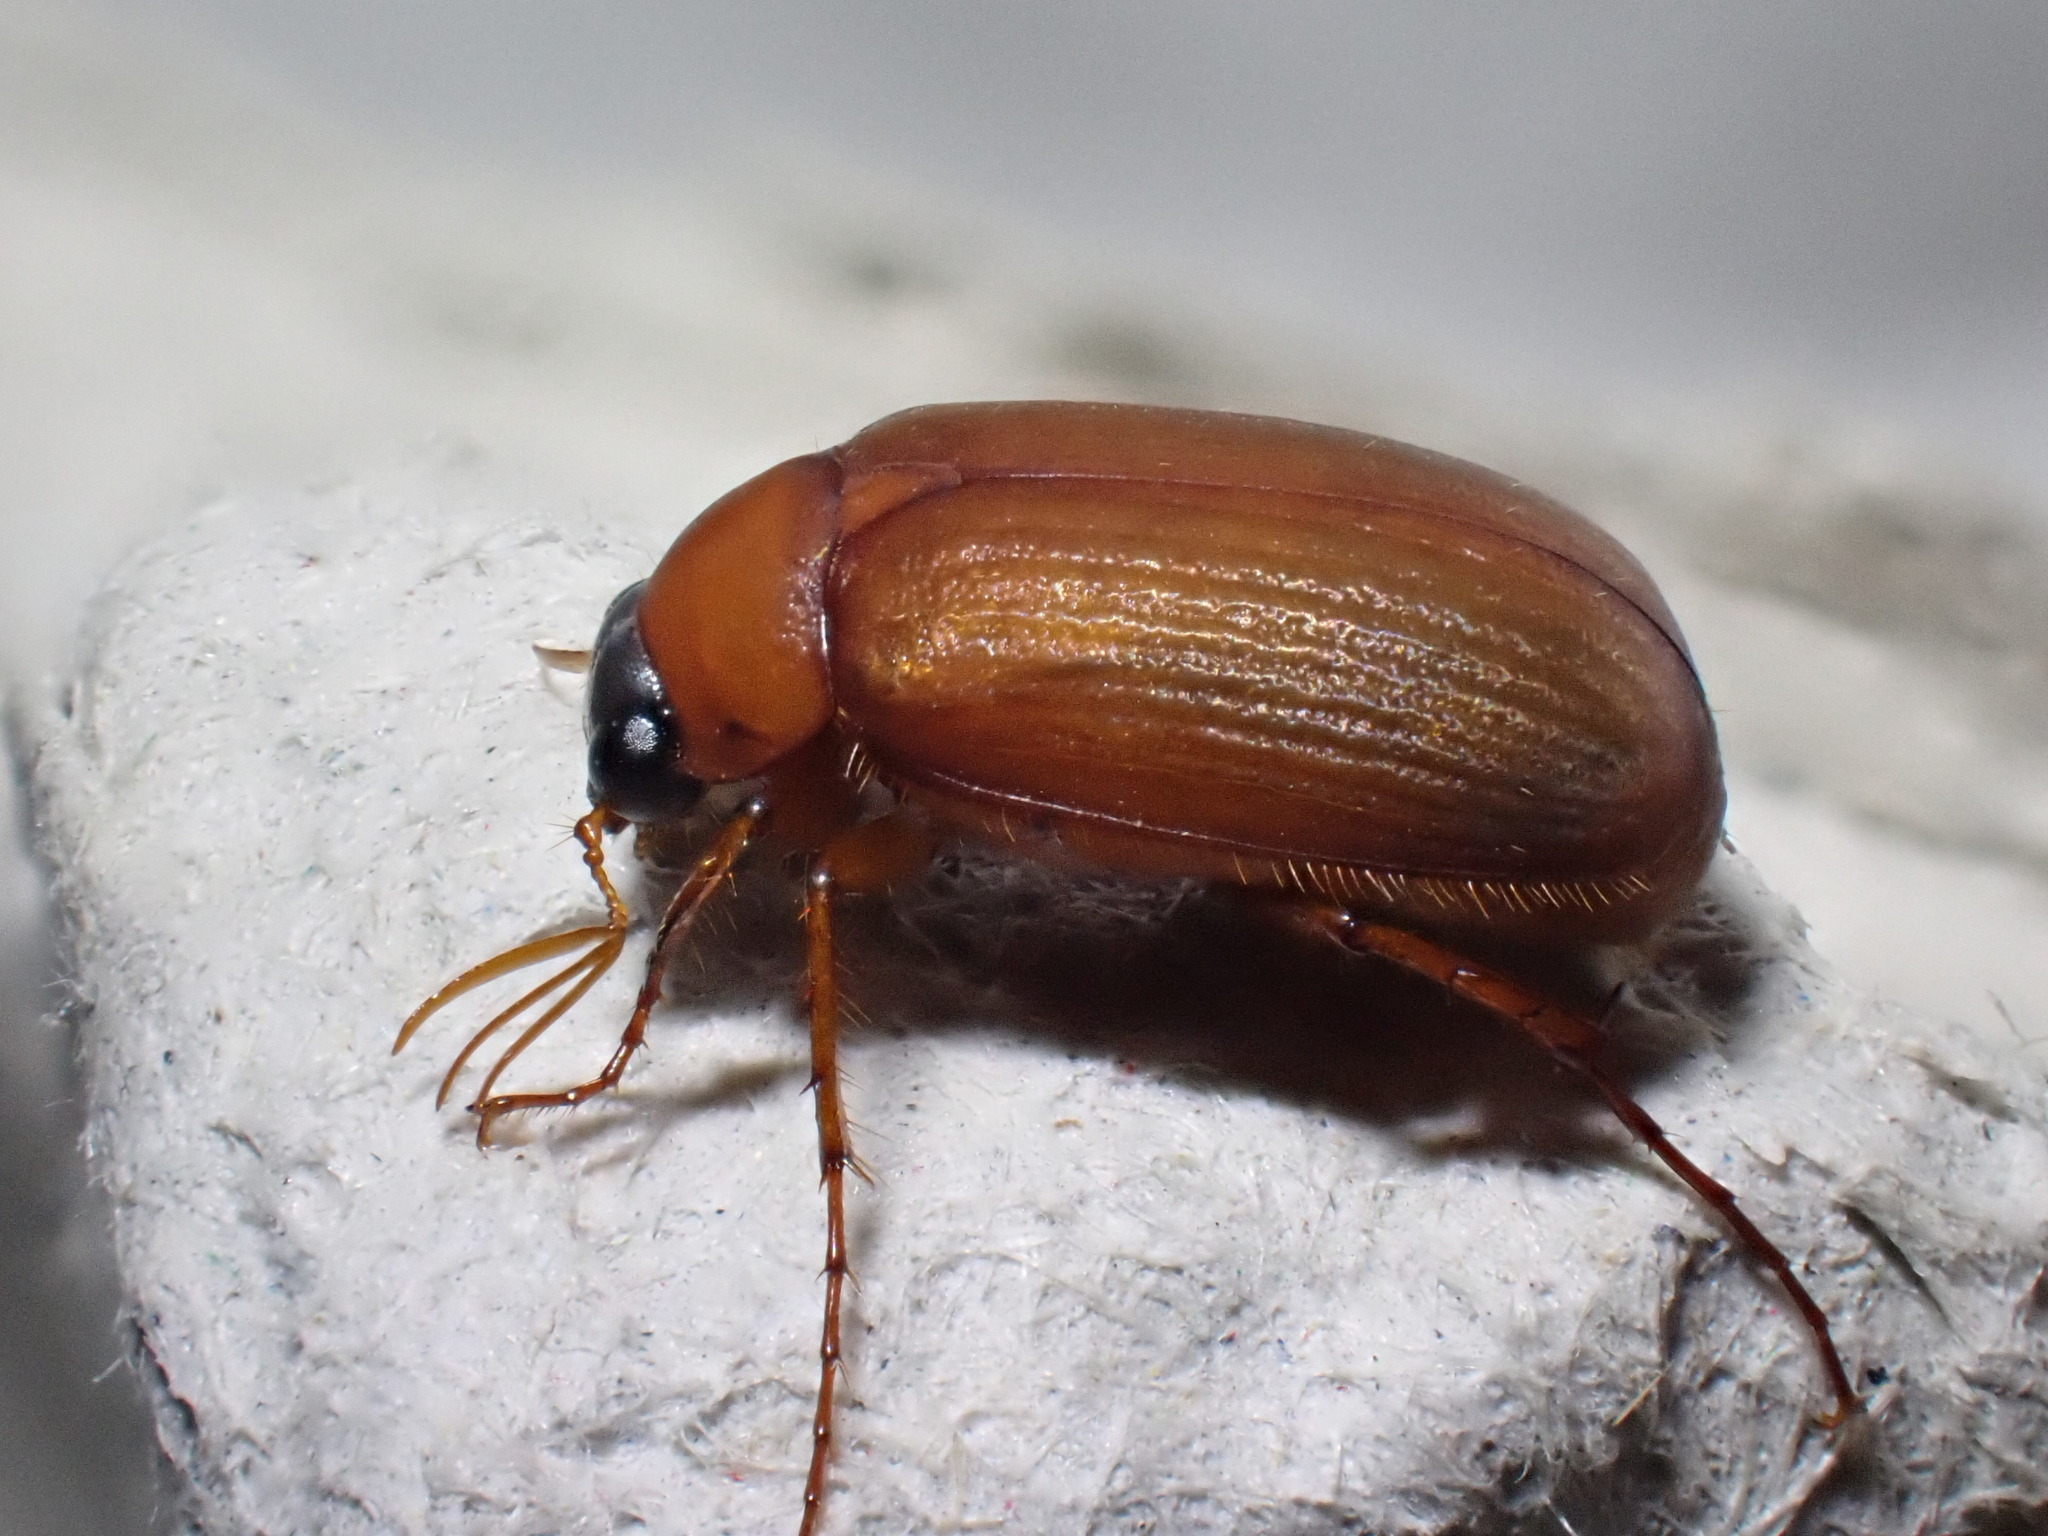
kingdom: Animalia
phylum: Arthropoda
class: Insecta
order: Coleoptera
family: Scarabaeidae
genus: Serica
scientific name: Serica brunnea
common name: Brown chafer
